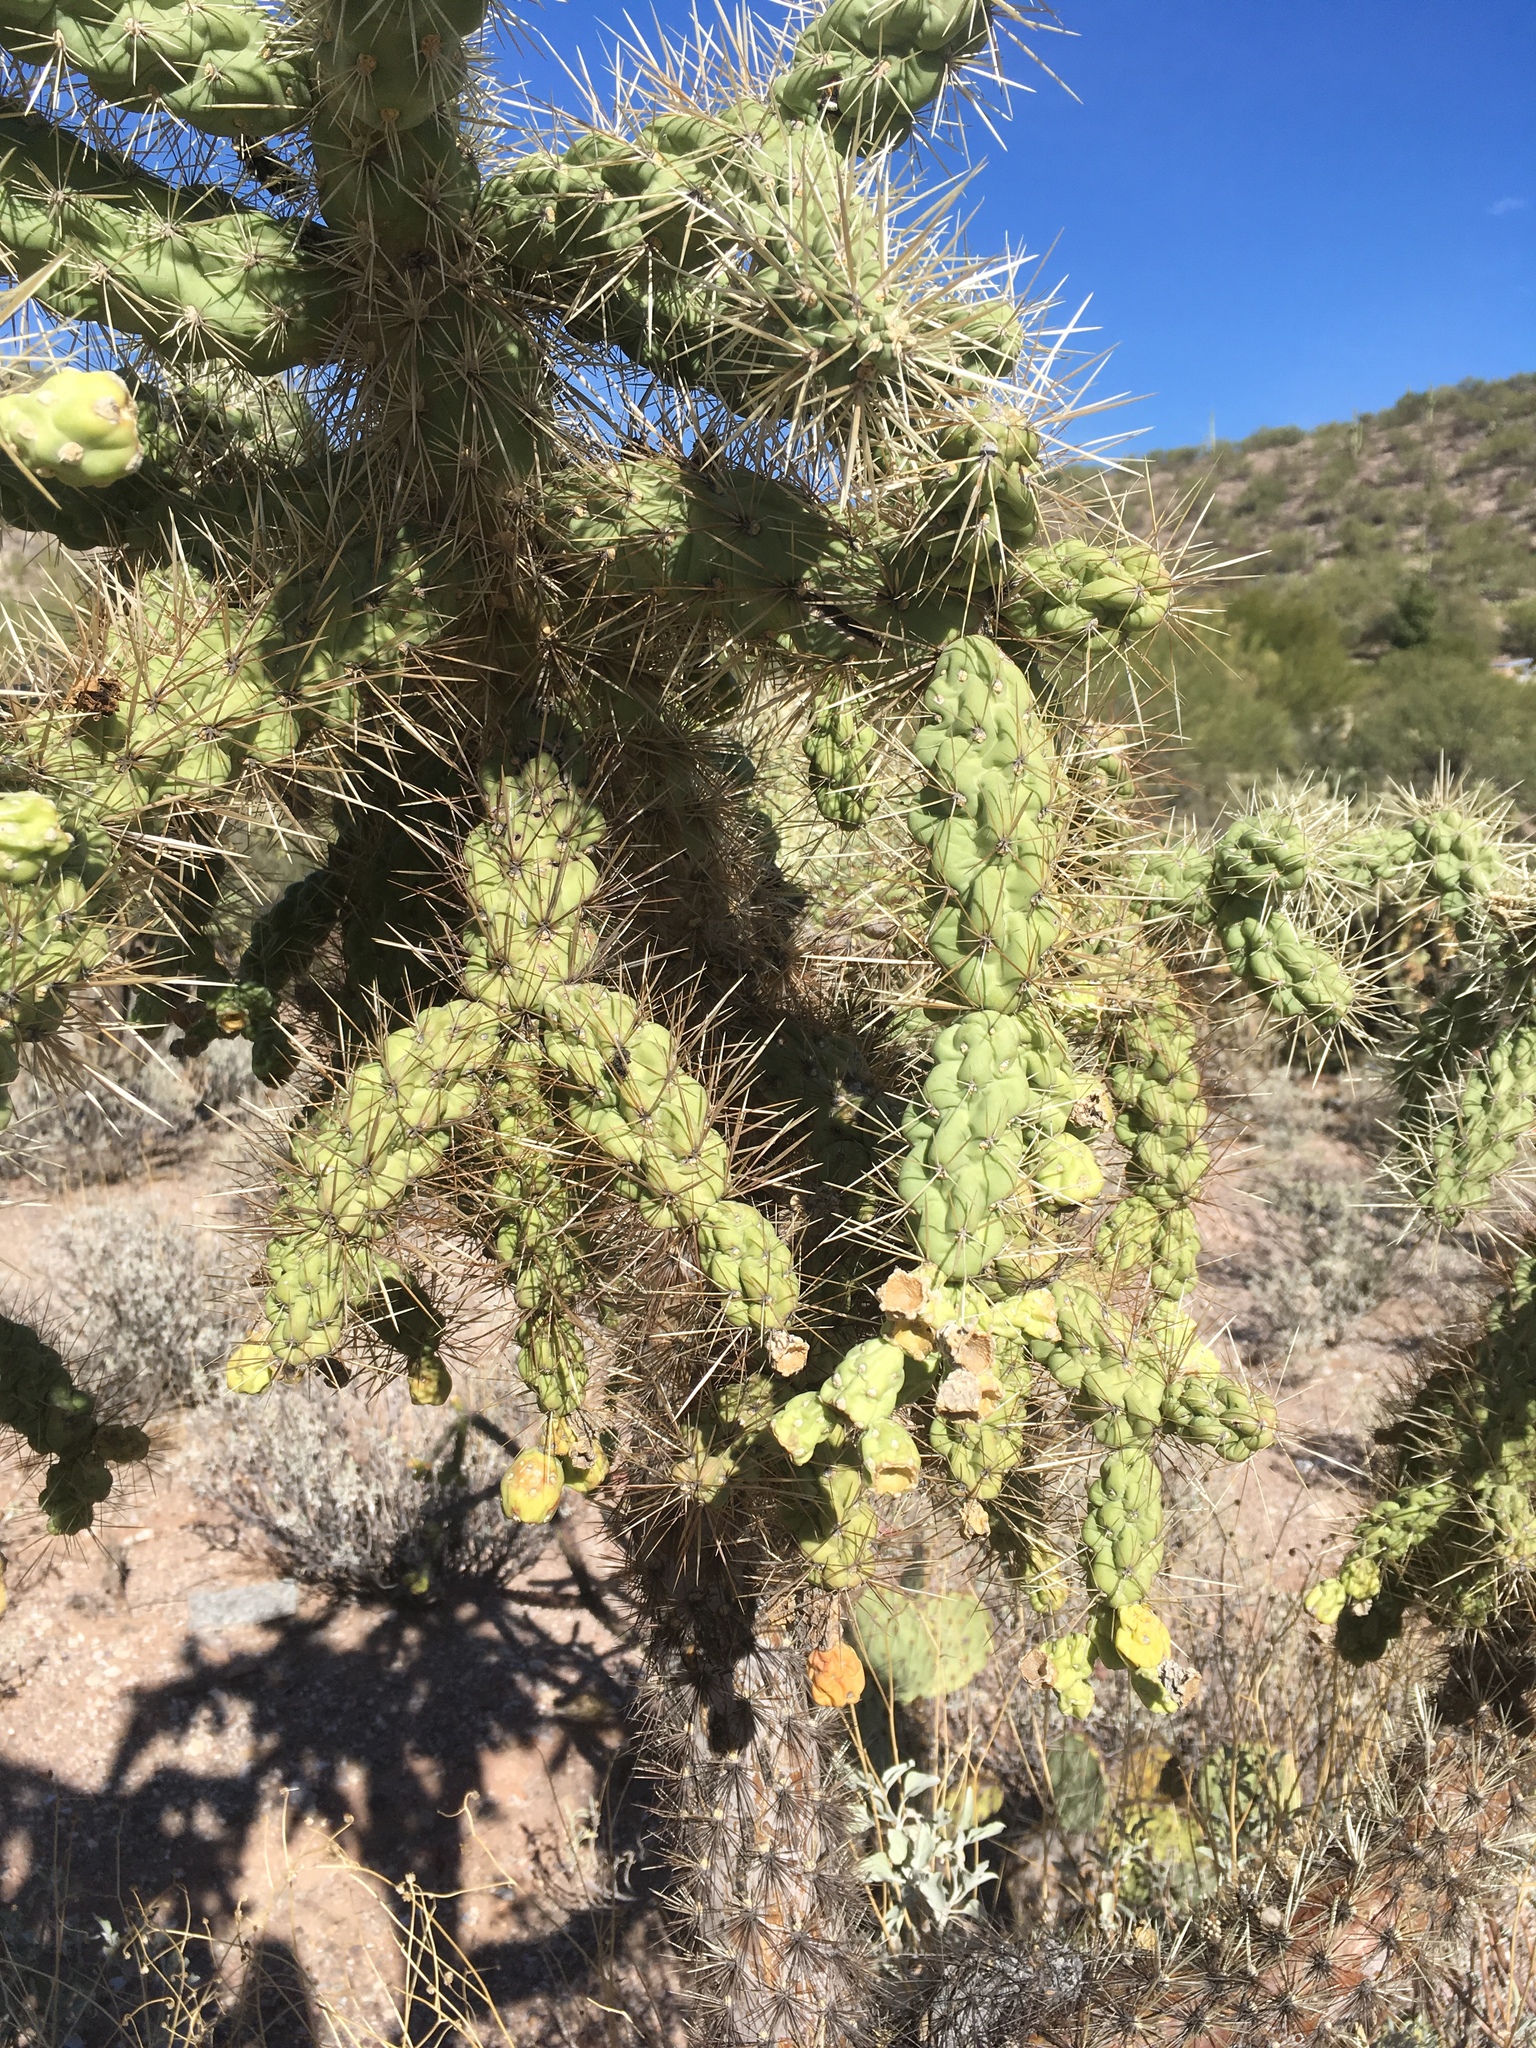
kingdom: Plantae
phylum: Tracheophyta
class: Magnoliopsida
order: Caryophyllales
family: Cactaceae
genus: Cylindropuntia
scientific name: Cylindropuntia fulgida
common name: Jumping cholla
